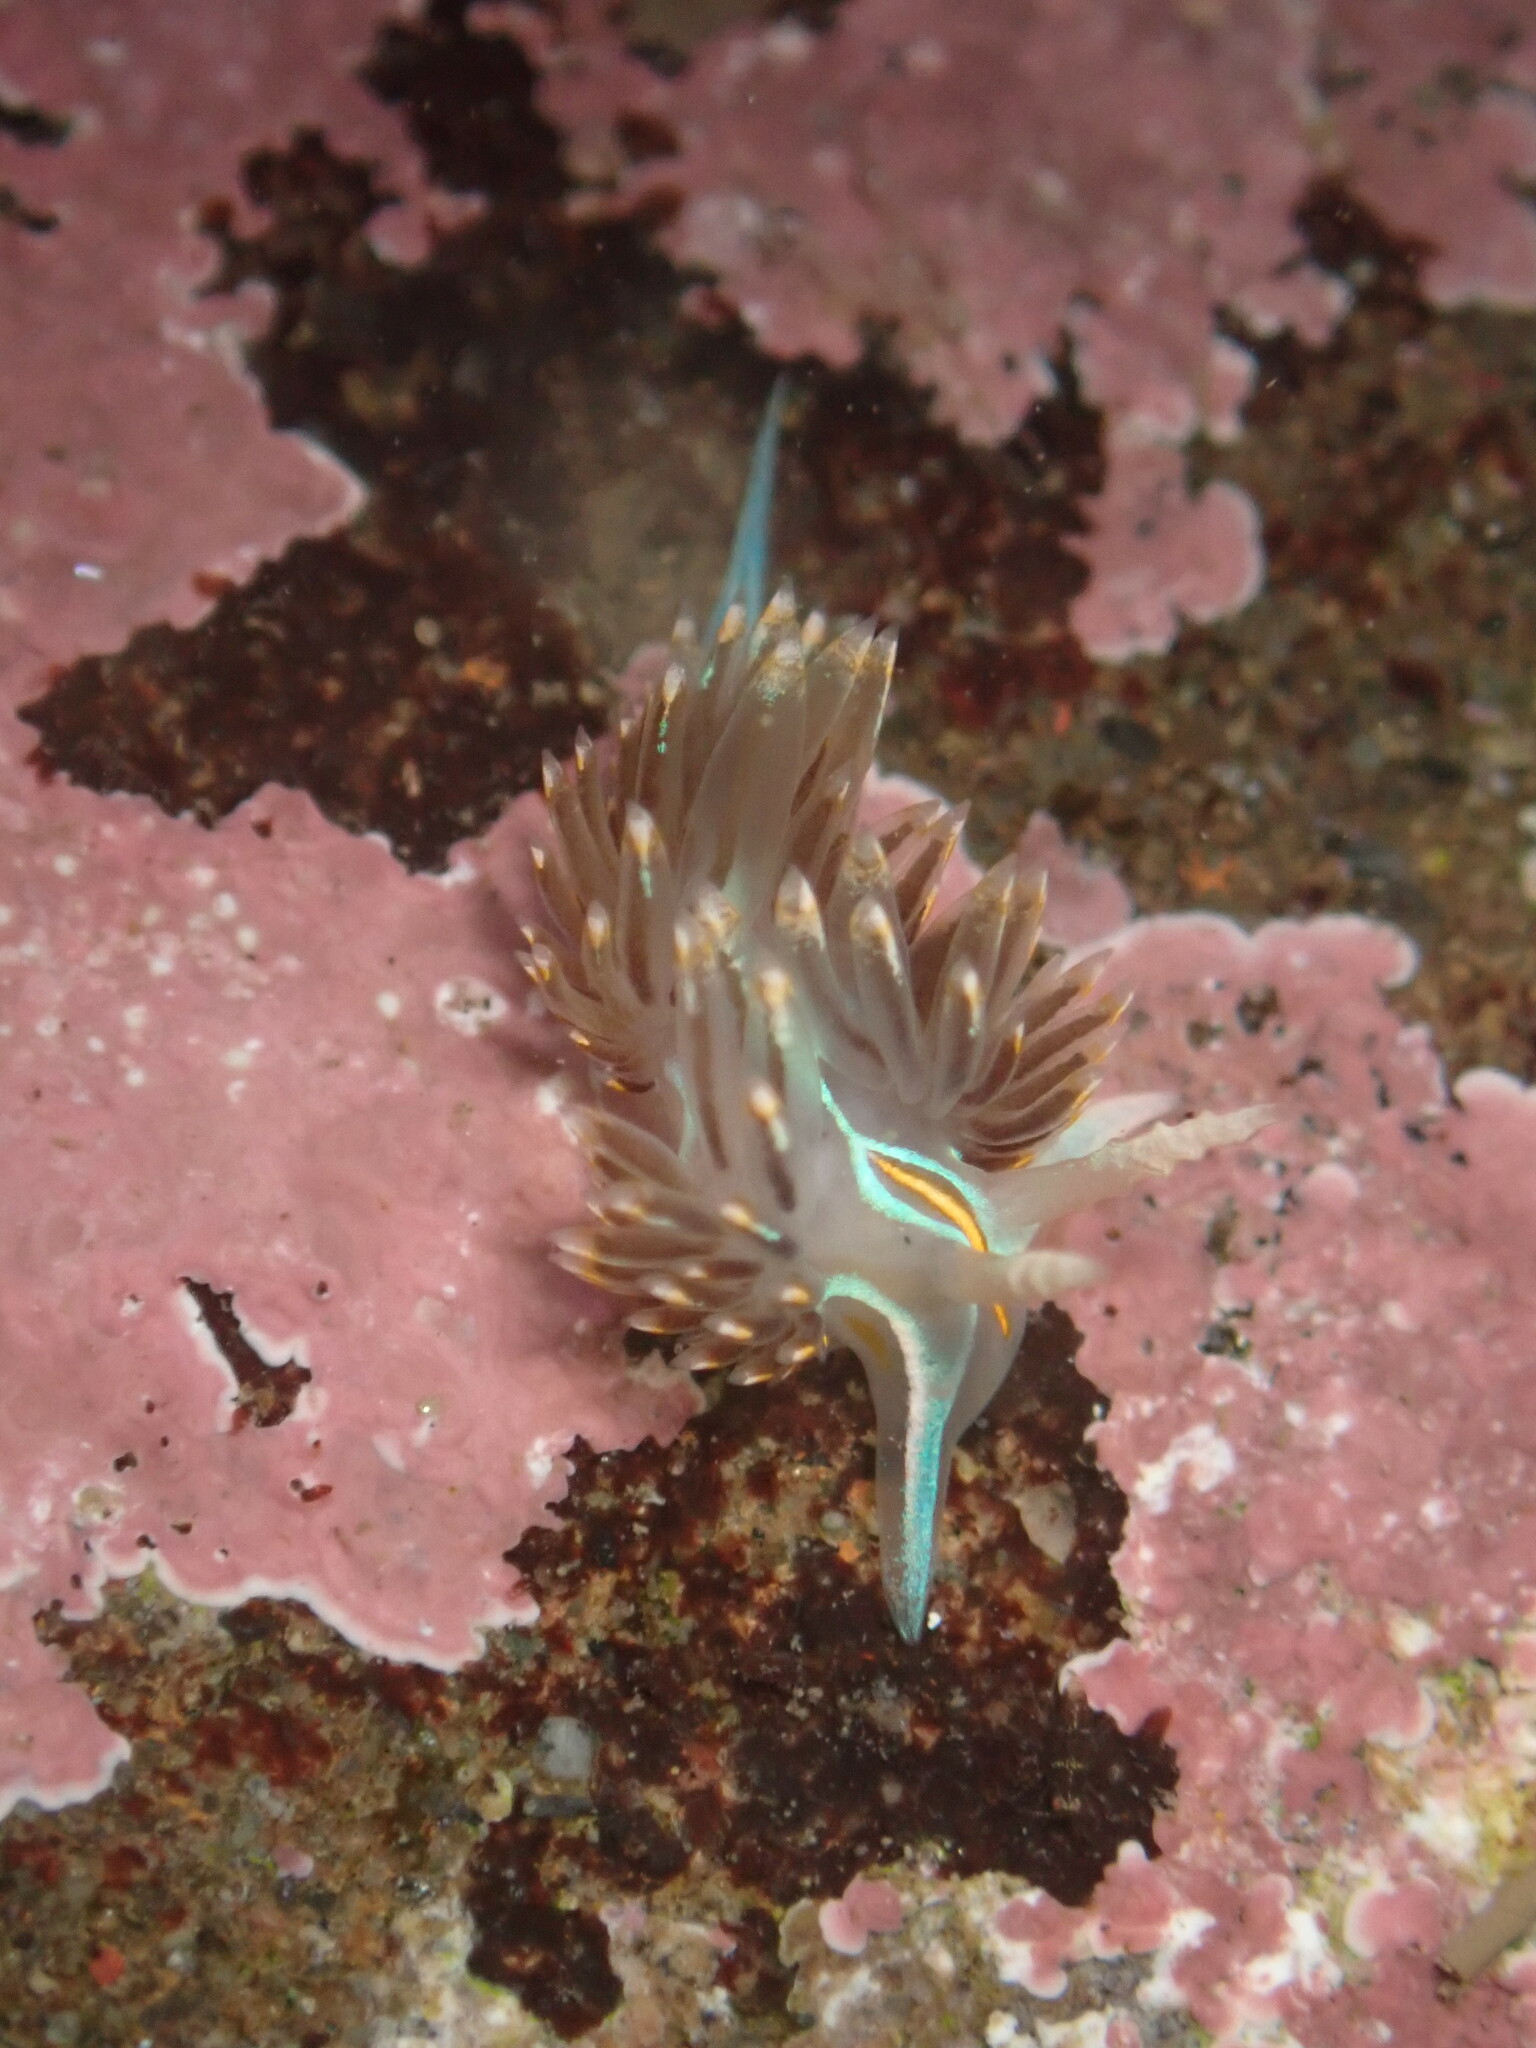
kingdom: Animalia
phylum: Mollusca
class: Gastropoda
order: Nudibranchia
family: Myrrhinidae
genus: Hermissenda
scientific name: Hermissenda opalescens
